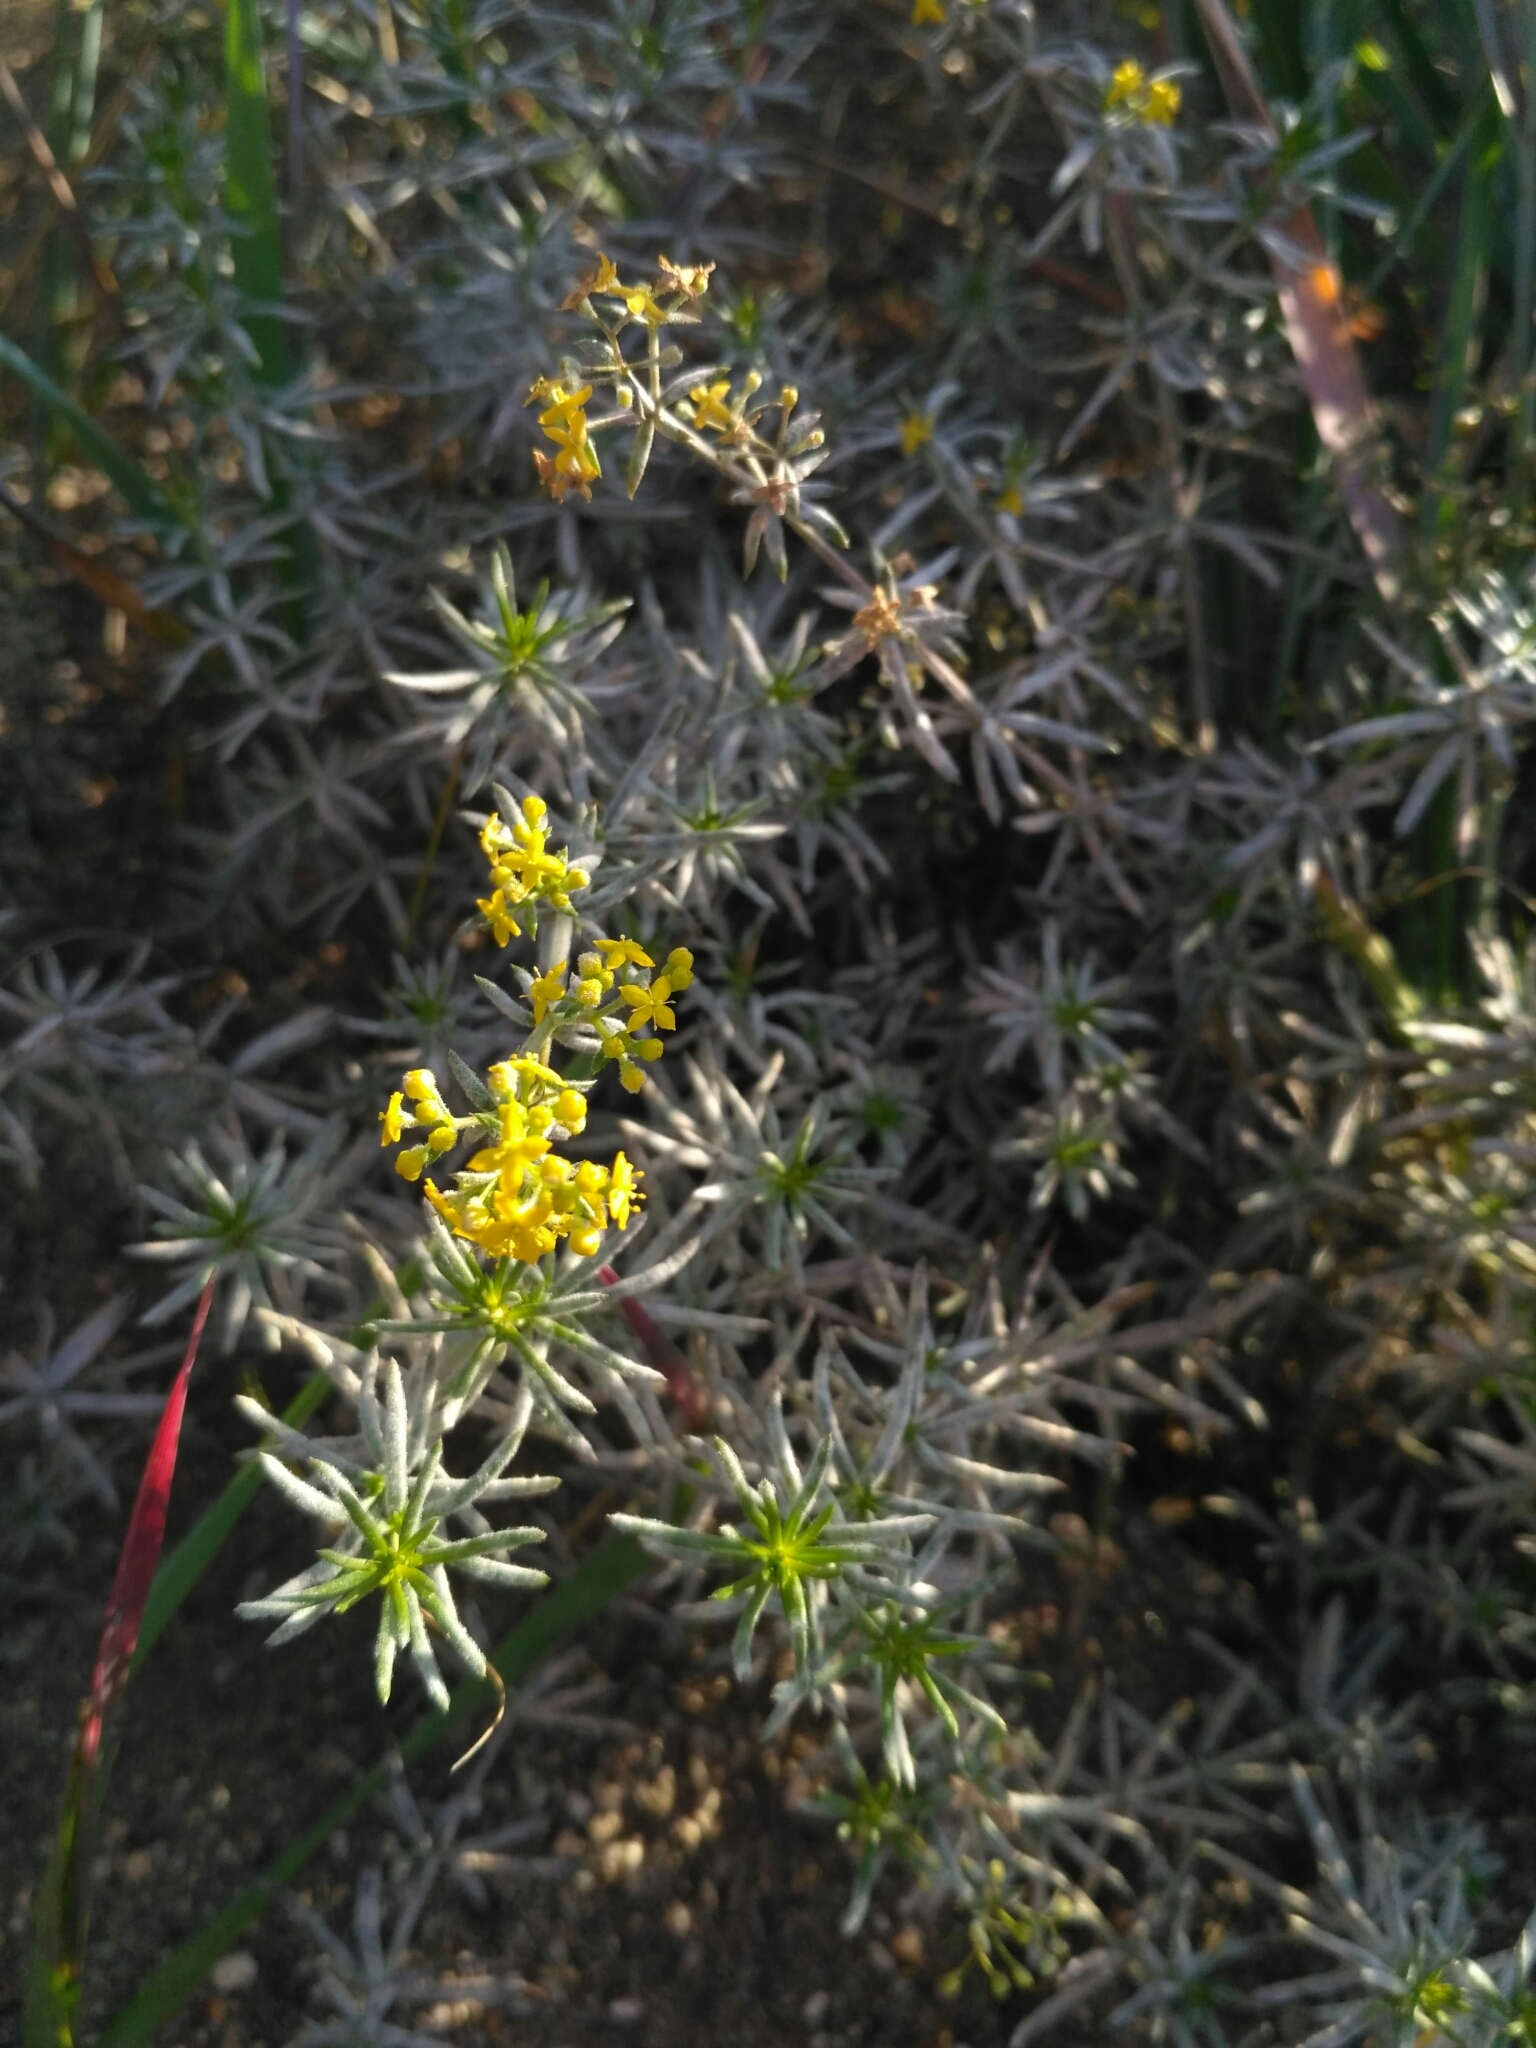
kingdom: Plantae
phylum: Tracheophyta
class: Magnoliopsida
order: Gentianales
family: Rubiaceae
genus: Galium
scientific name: Galium verum
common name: Lady's bedstraw
